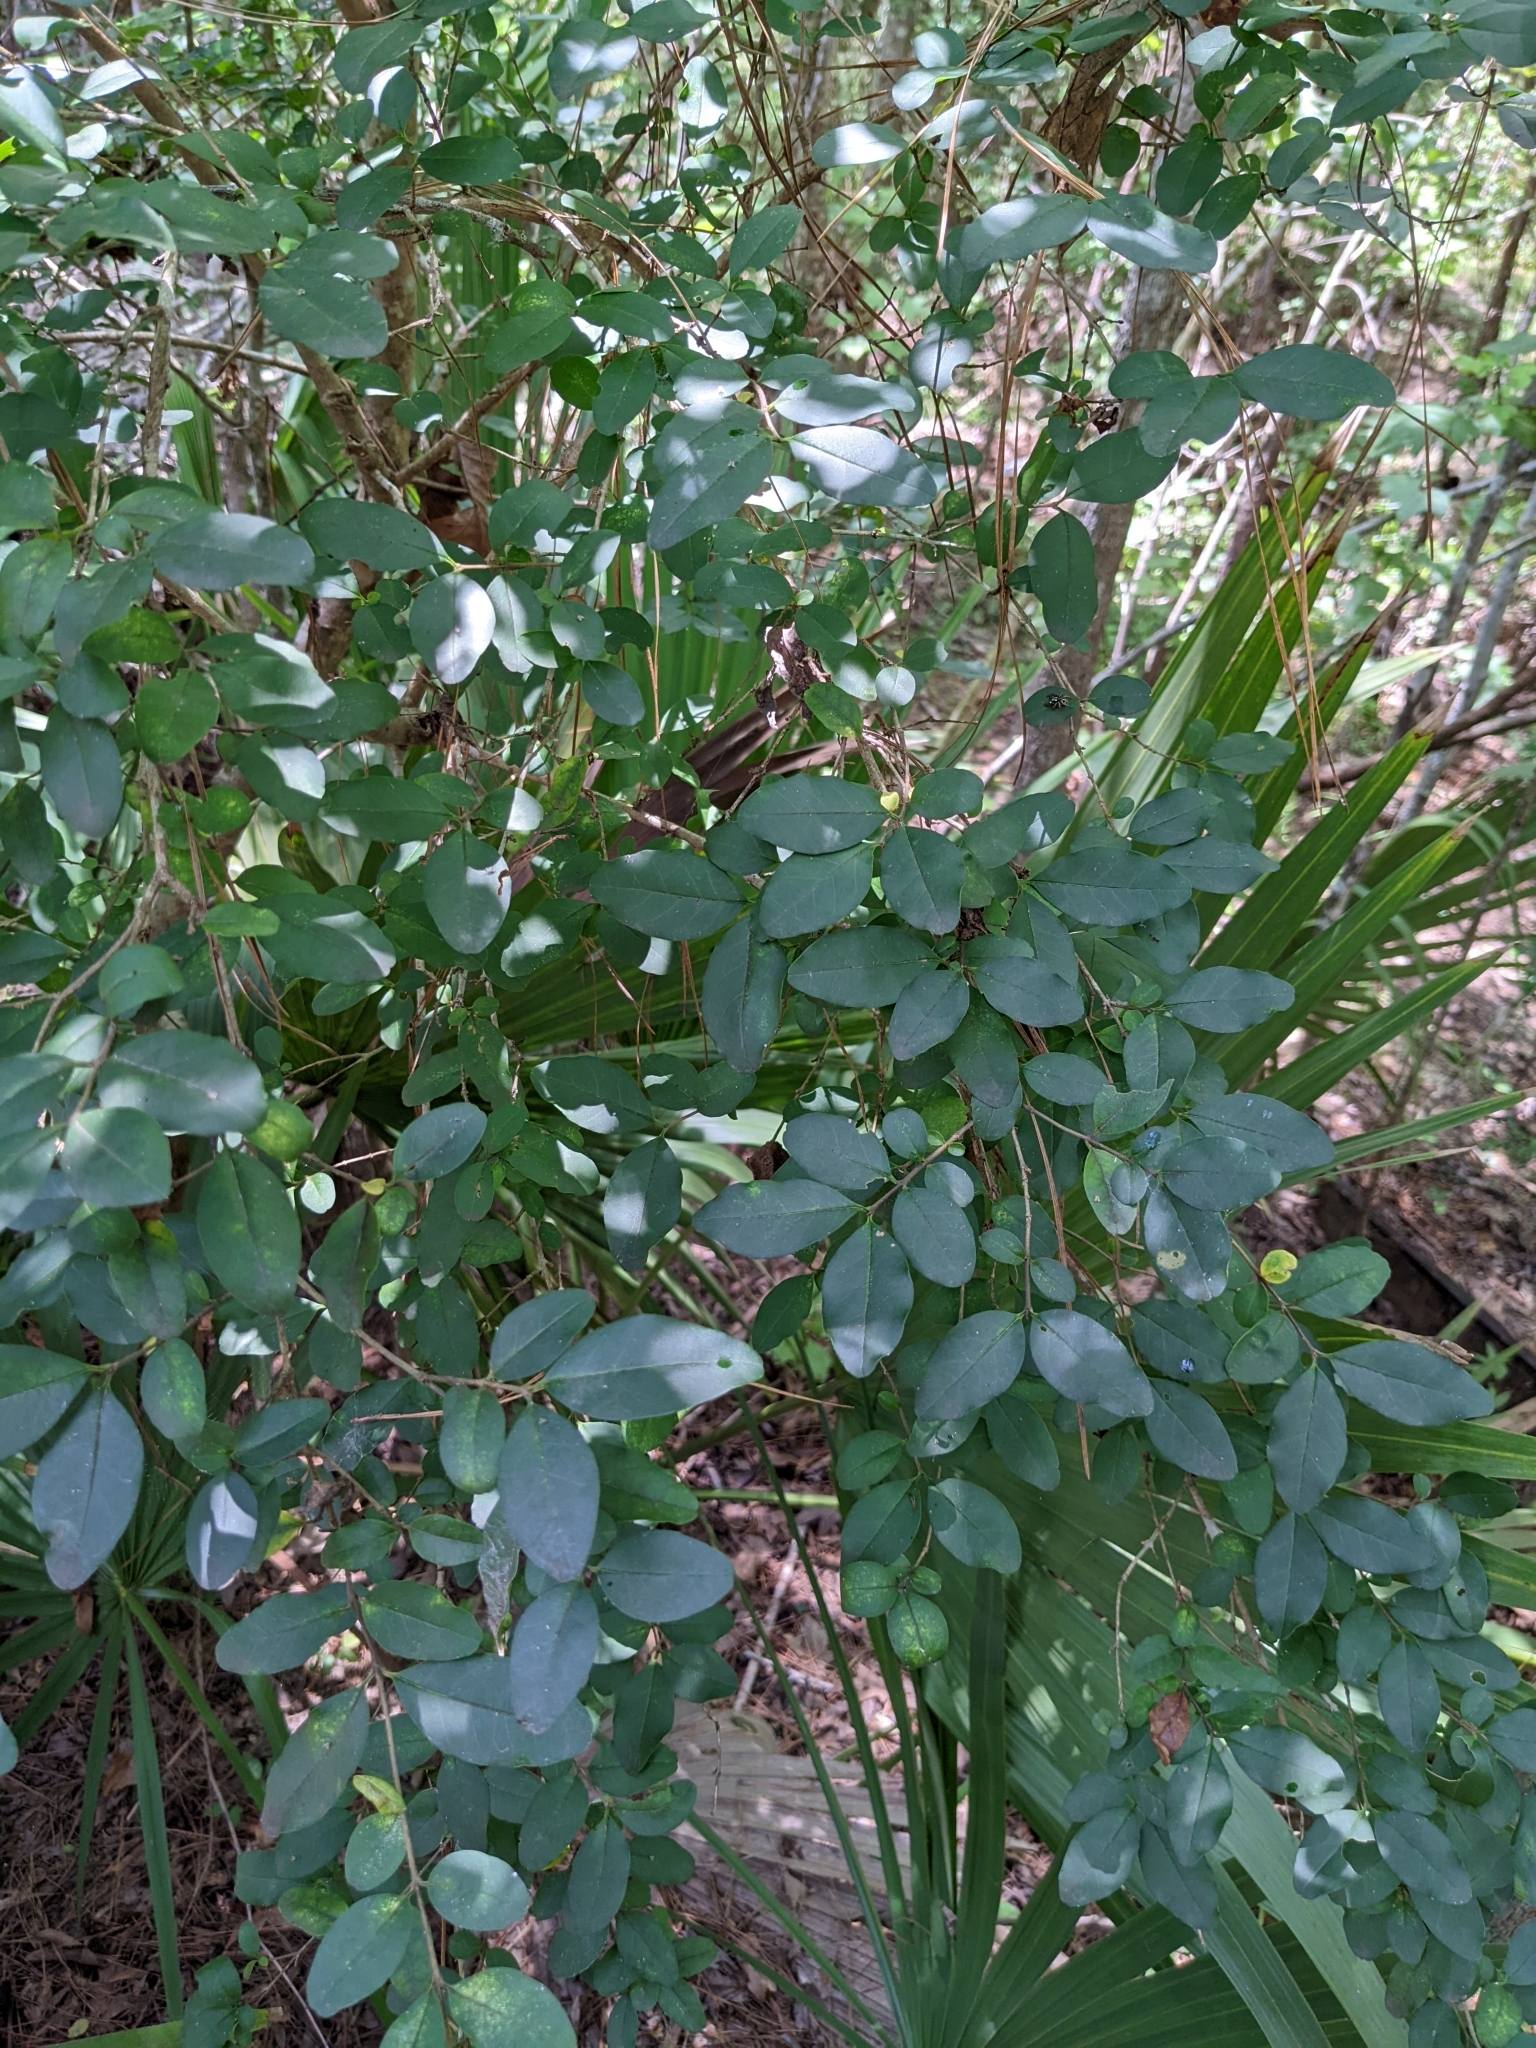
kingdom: Plantae
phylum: Tracheophyta
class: Magnoliopsida
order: Lamiales
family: Oleaceae
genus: Ligustrum
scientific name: Ligustrum sinense
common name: Chinese privet
